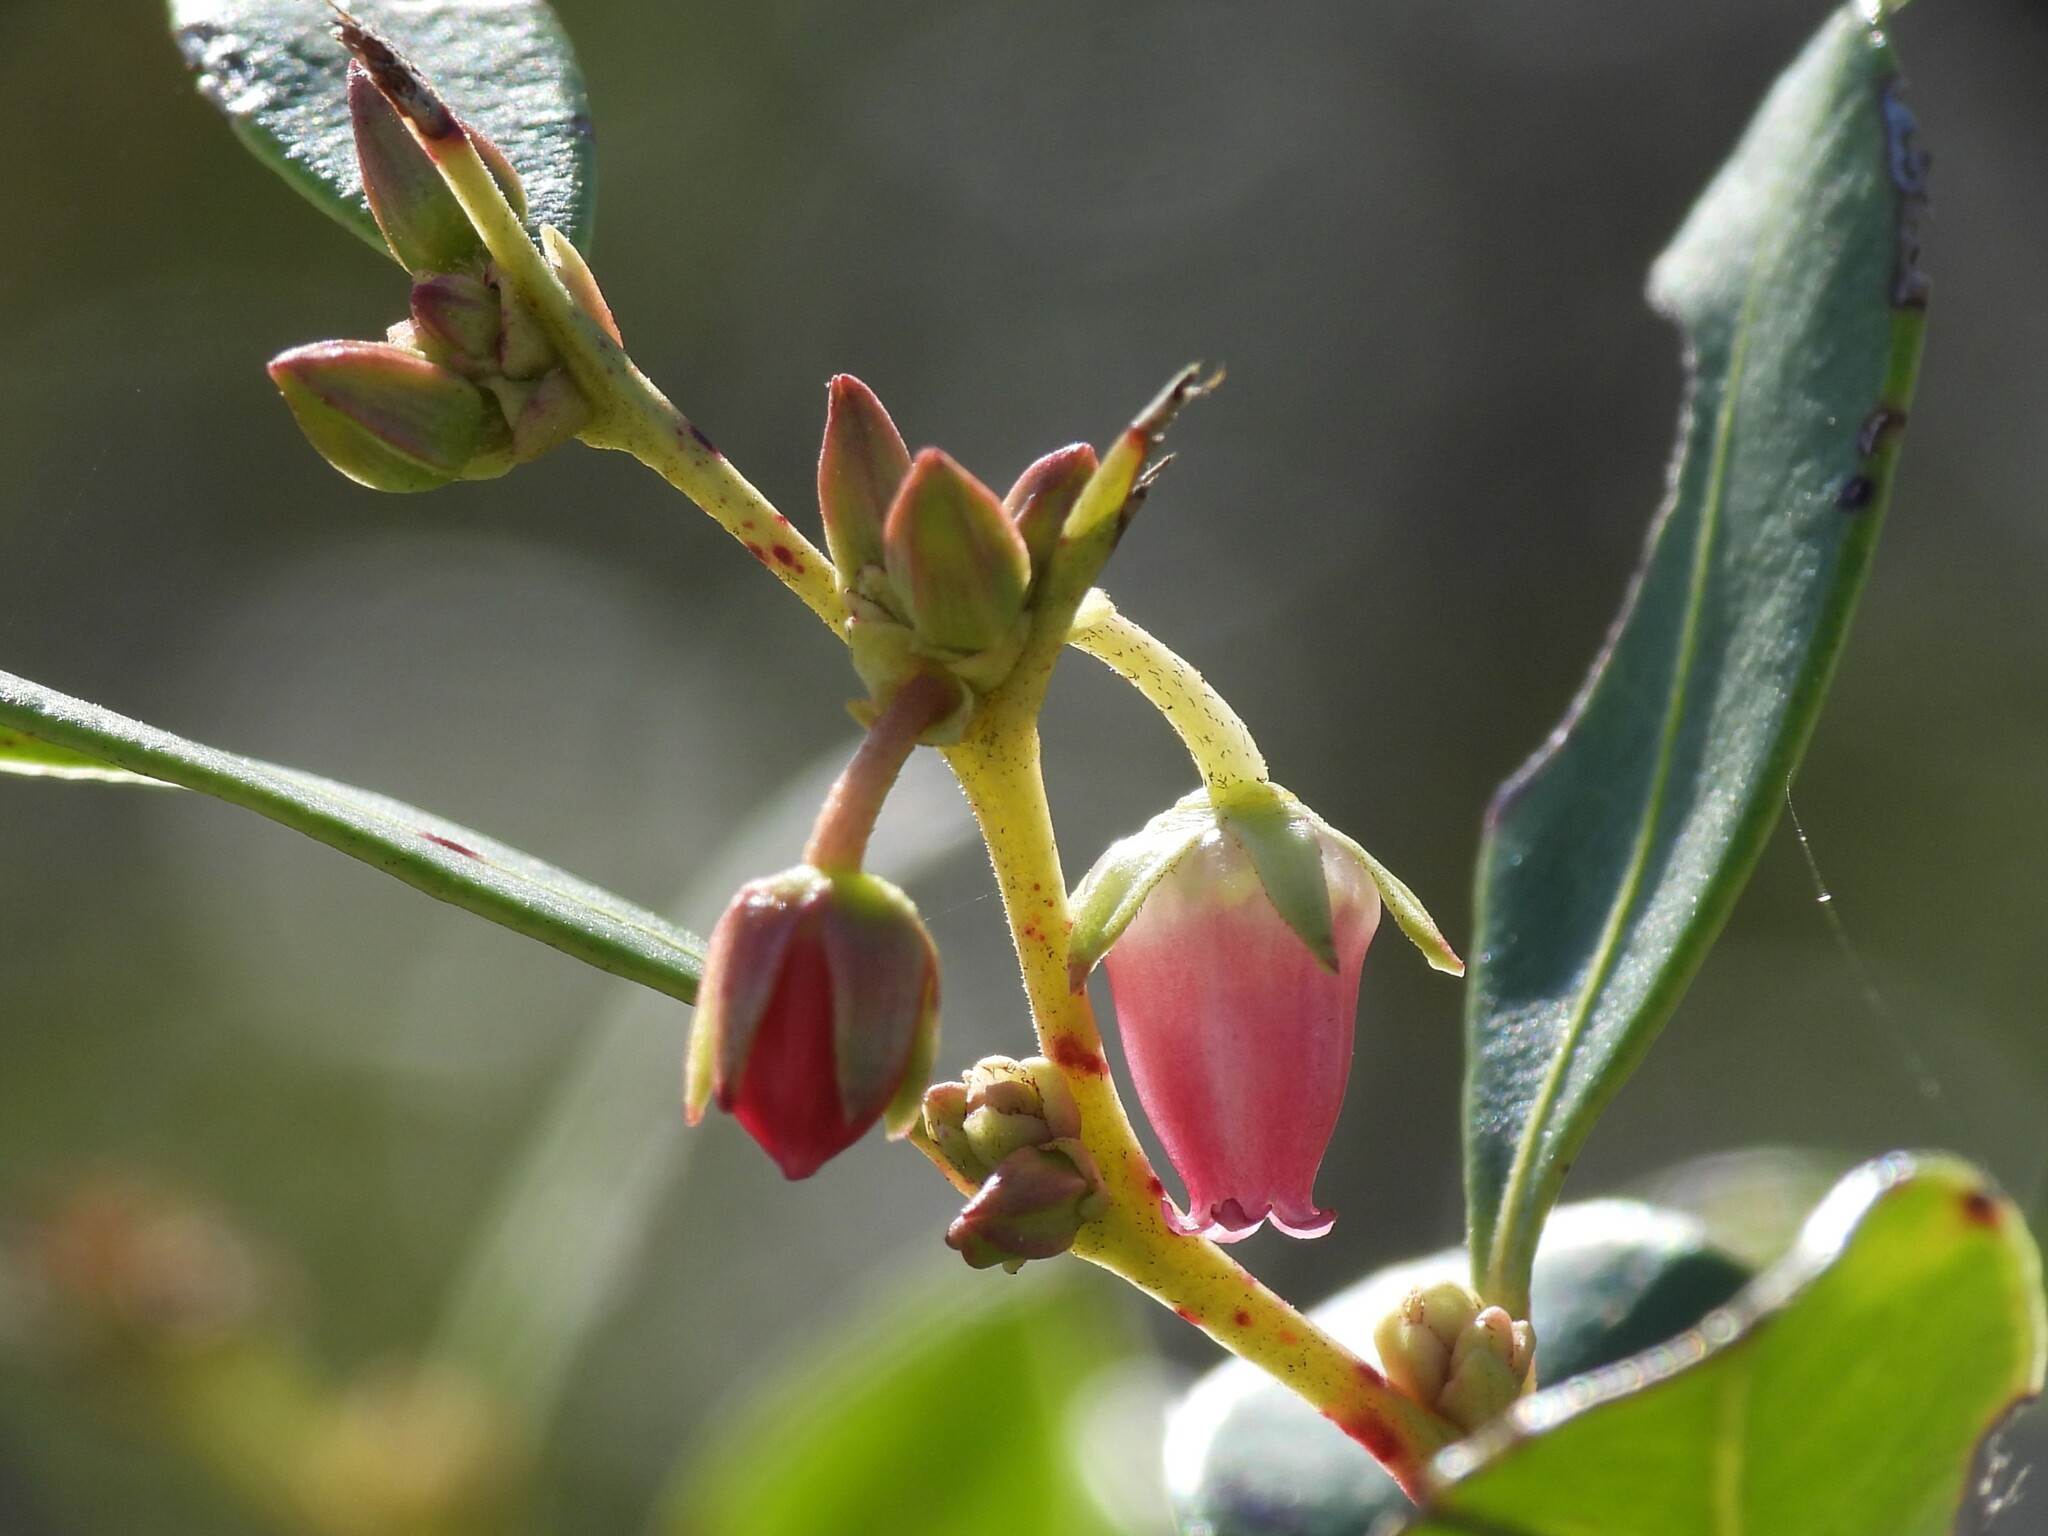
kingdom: Plantae
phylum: Tracheophyta
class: Magnoliopsida
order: Ericales
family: Ericaceae
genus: Lyonia
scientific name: Lyonia lucida
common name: Fetterbush
